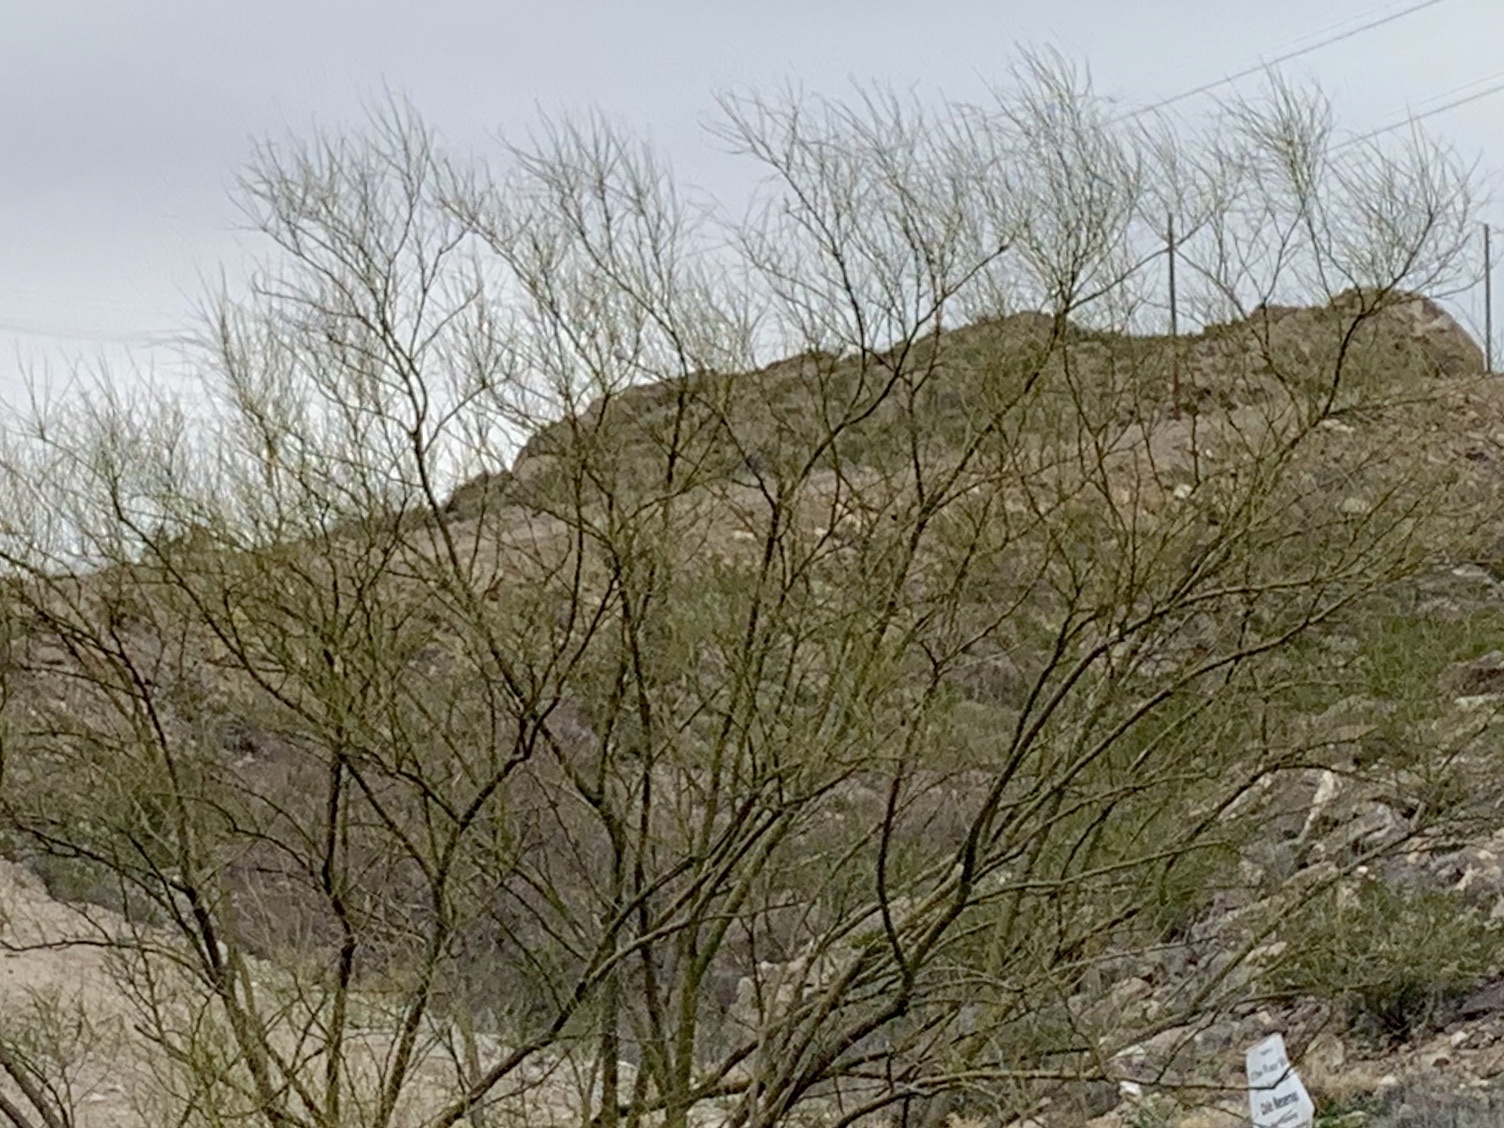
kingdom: Plantae
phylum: Tracheophyta
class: Magnoliopsida
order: Fabales
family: Fabaceae
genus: Parkinsonia
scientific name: Parkinsonia aculeata
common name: Jerusalem thorn
